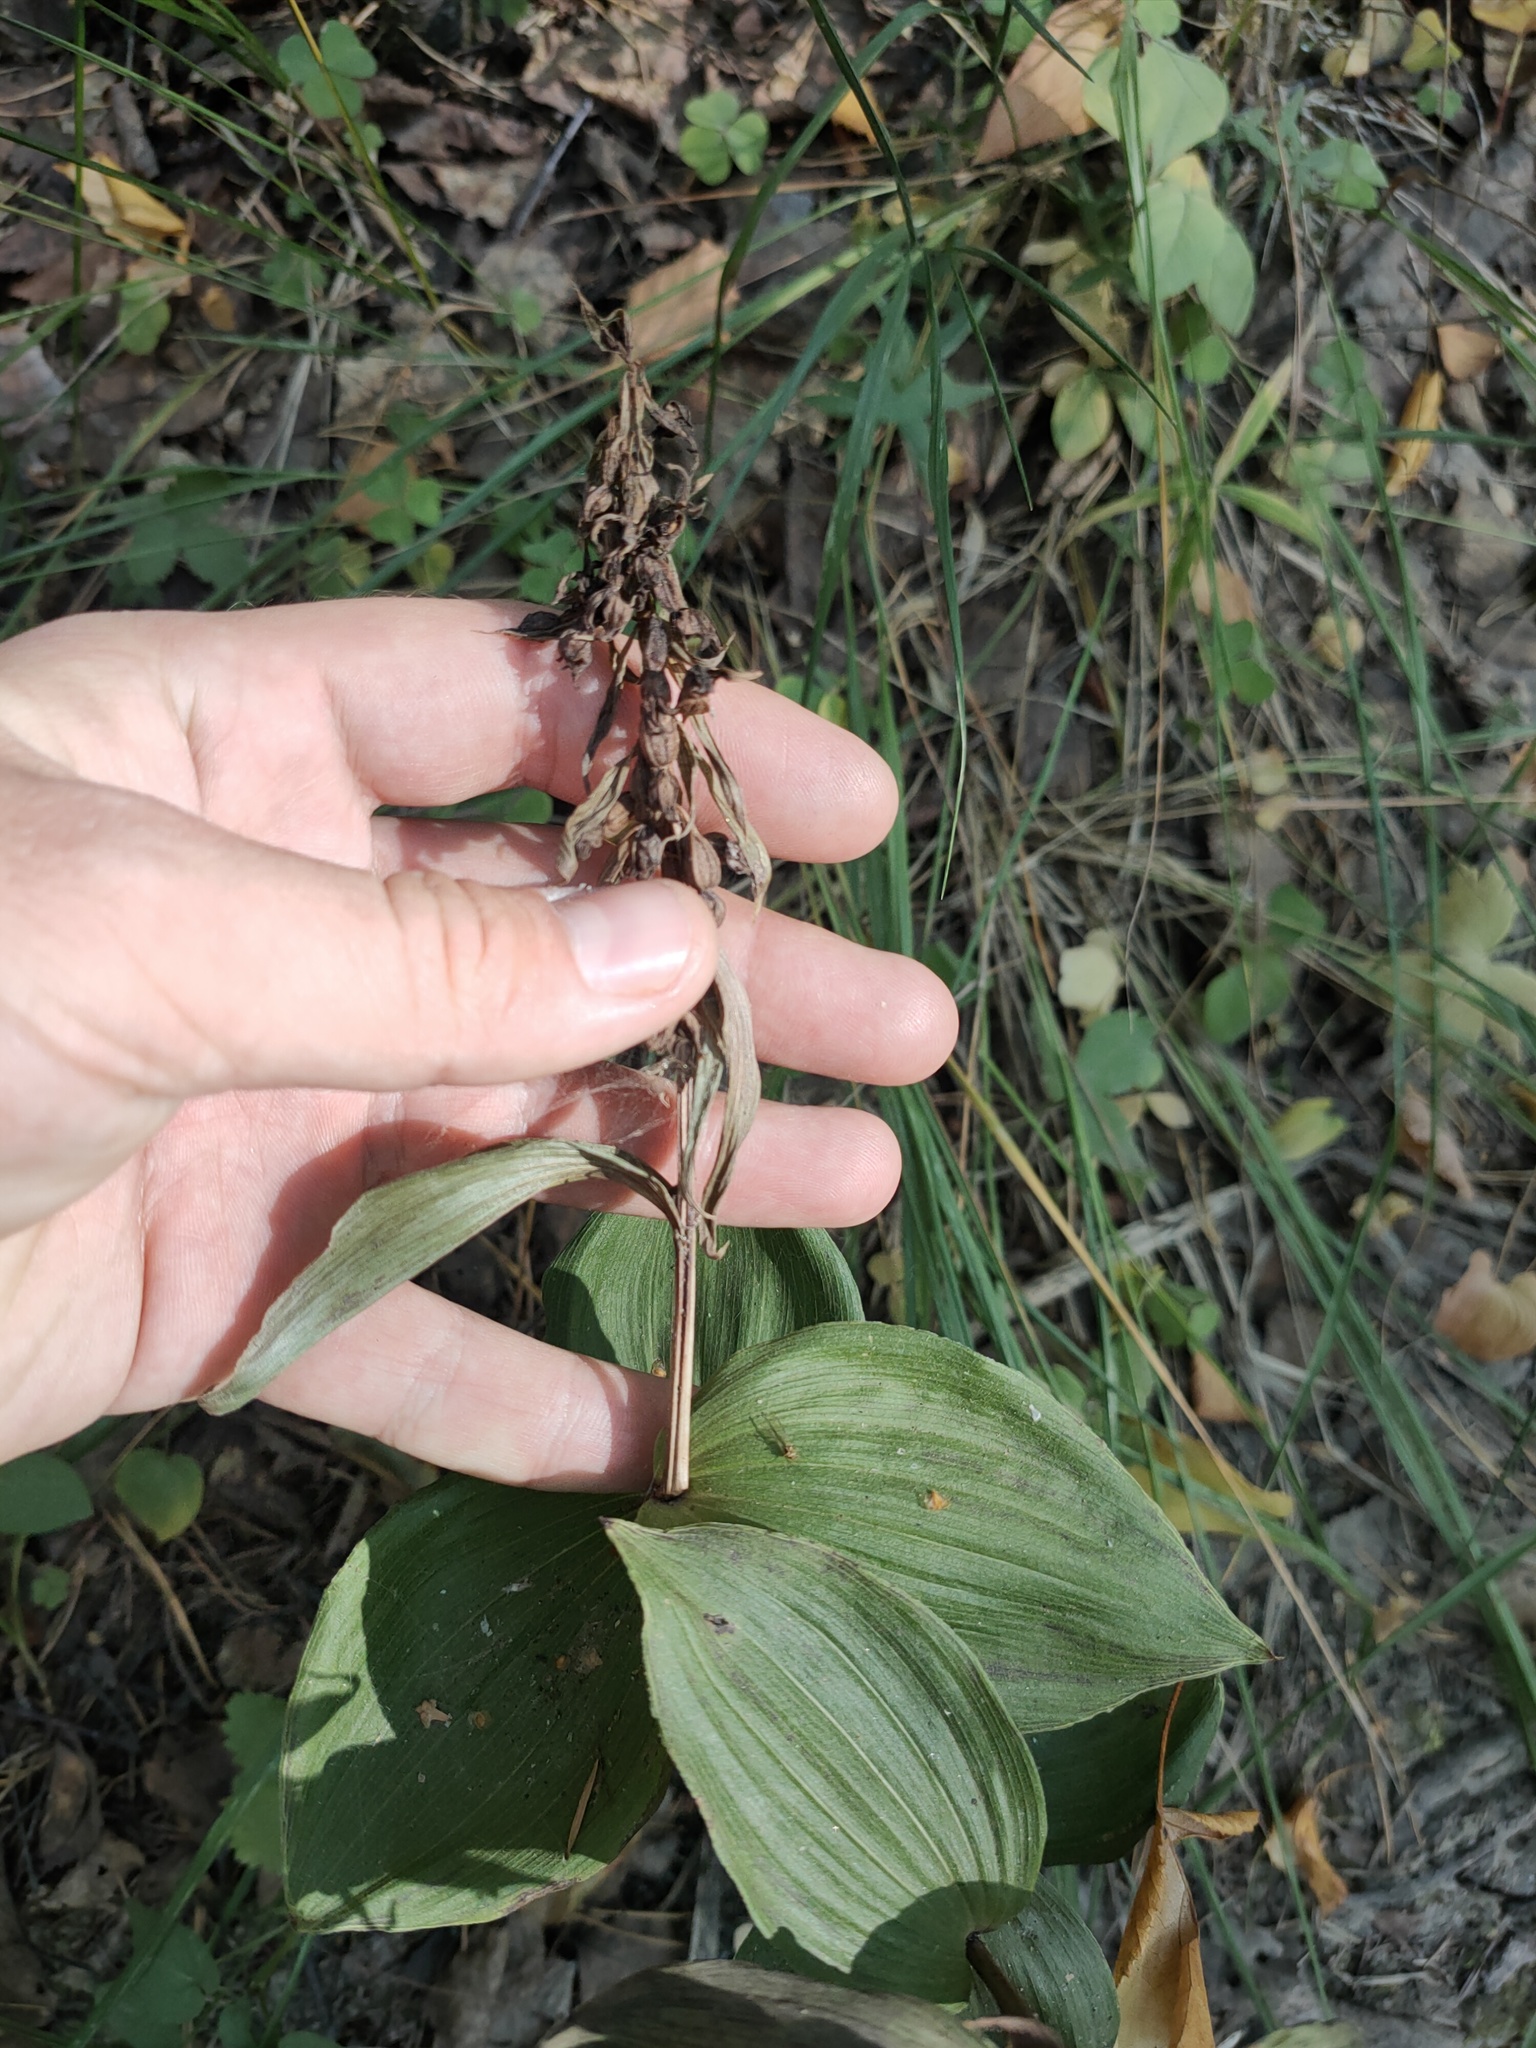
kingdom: Plantae
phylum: Tracheophyta
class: Liliopsida
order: Asparagales
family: Orchidaceae
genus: Epipactis
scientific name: Epipactis helleborine
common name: Broad-leaved helleborine
